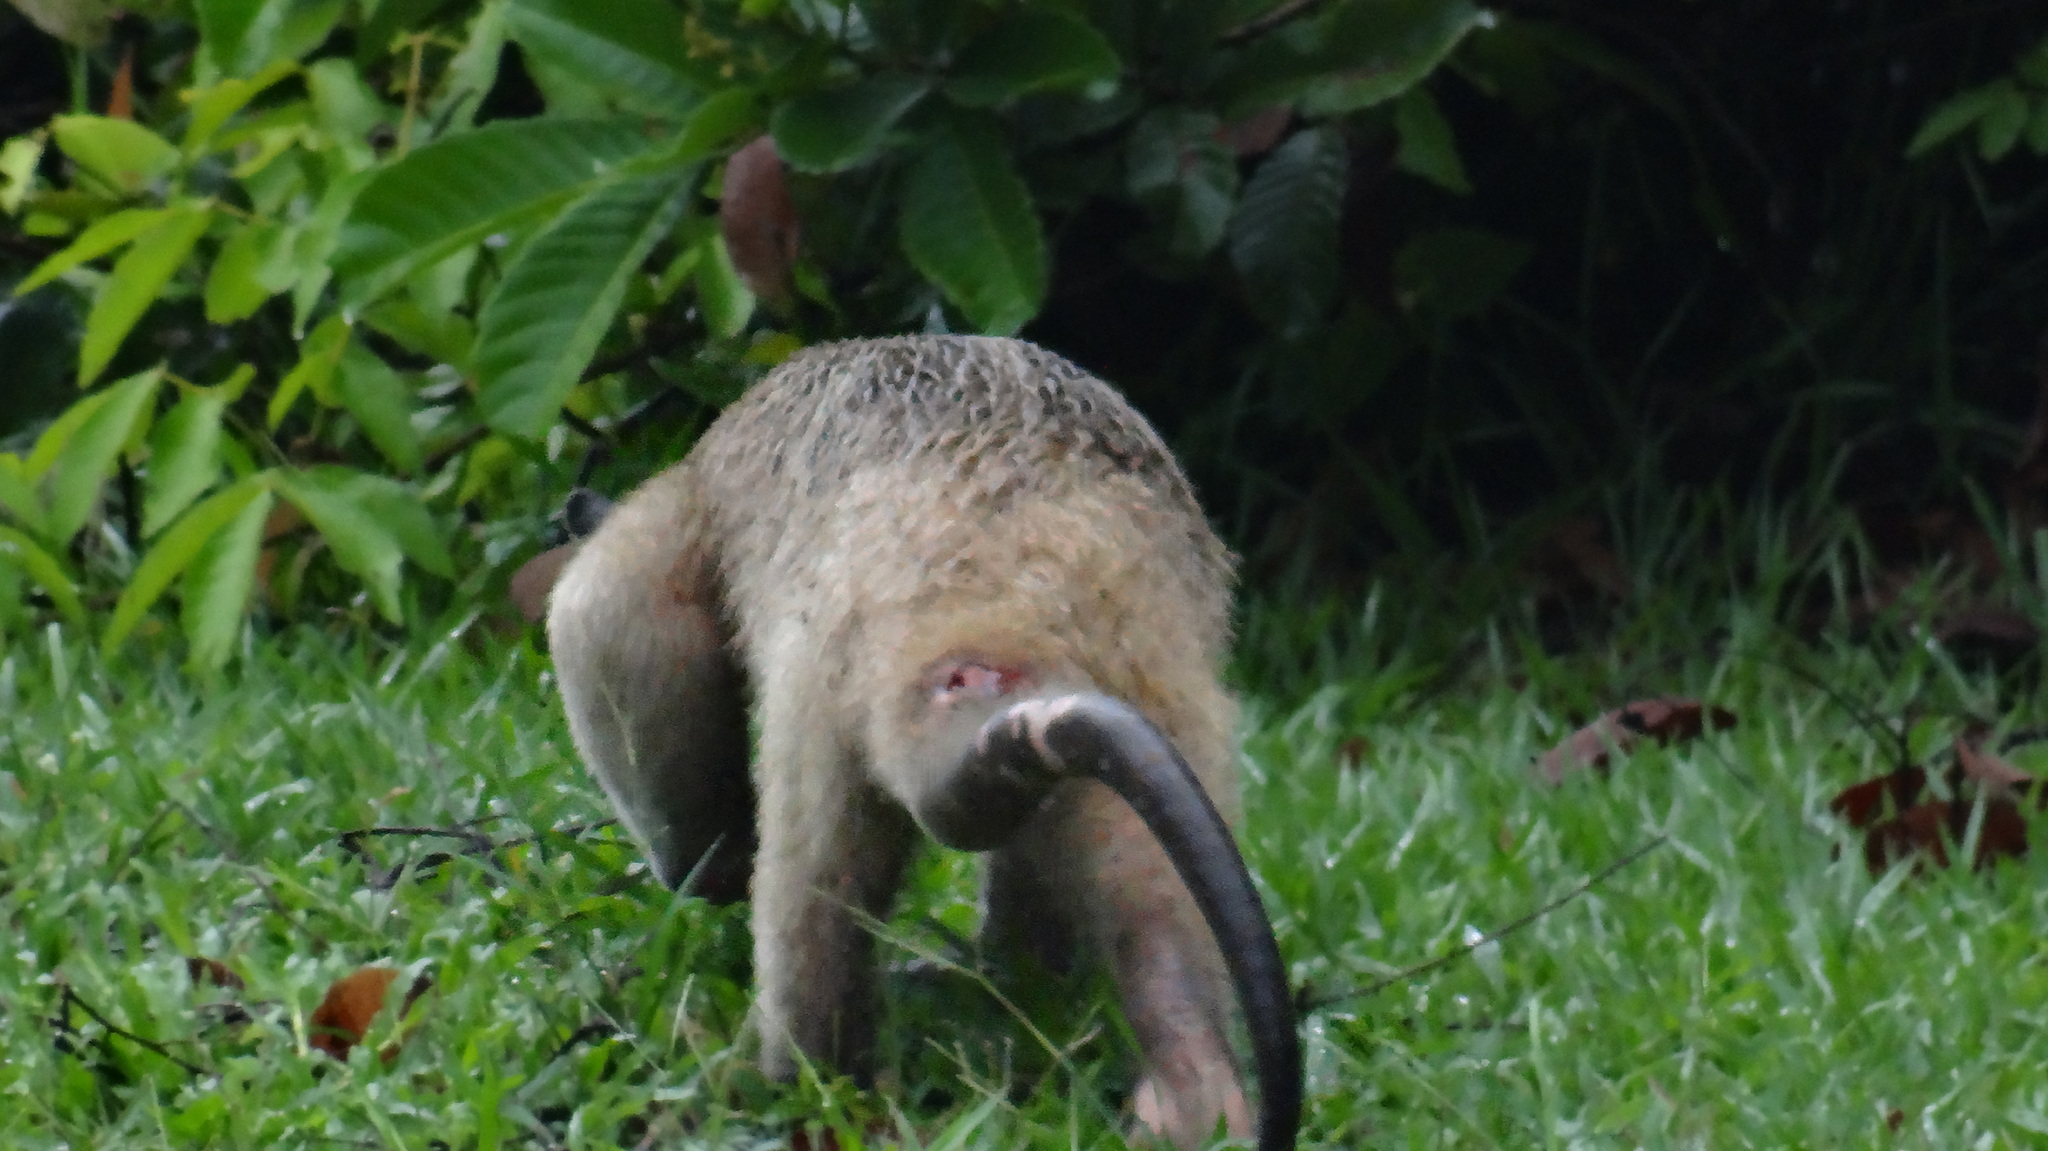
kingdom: Animalia
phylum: Chordata
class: Mammalia
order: Pilosa
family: Myrmecophagidae
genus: Tamandua
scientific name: Tamandua tetradactyla
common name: Southern tamandua
